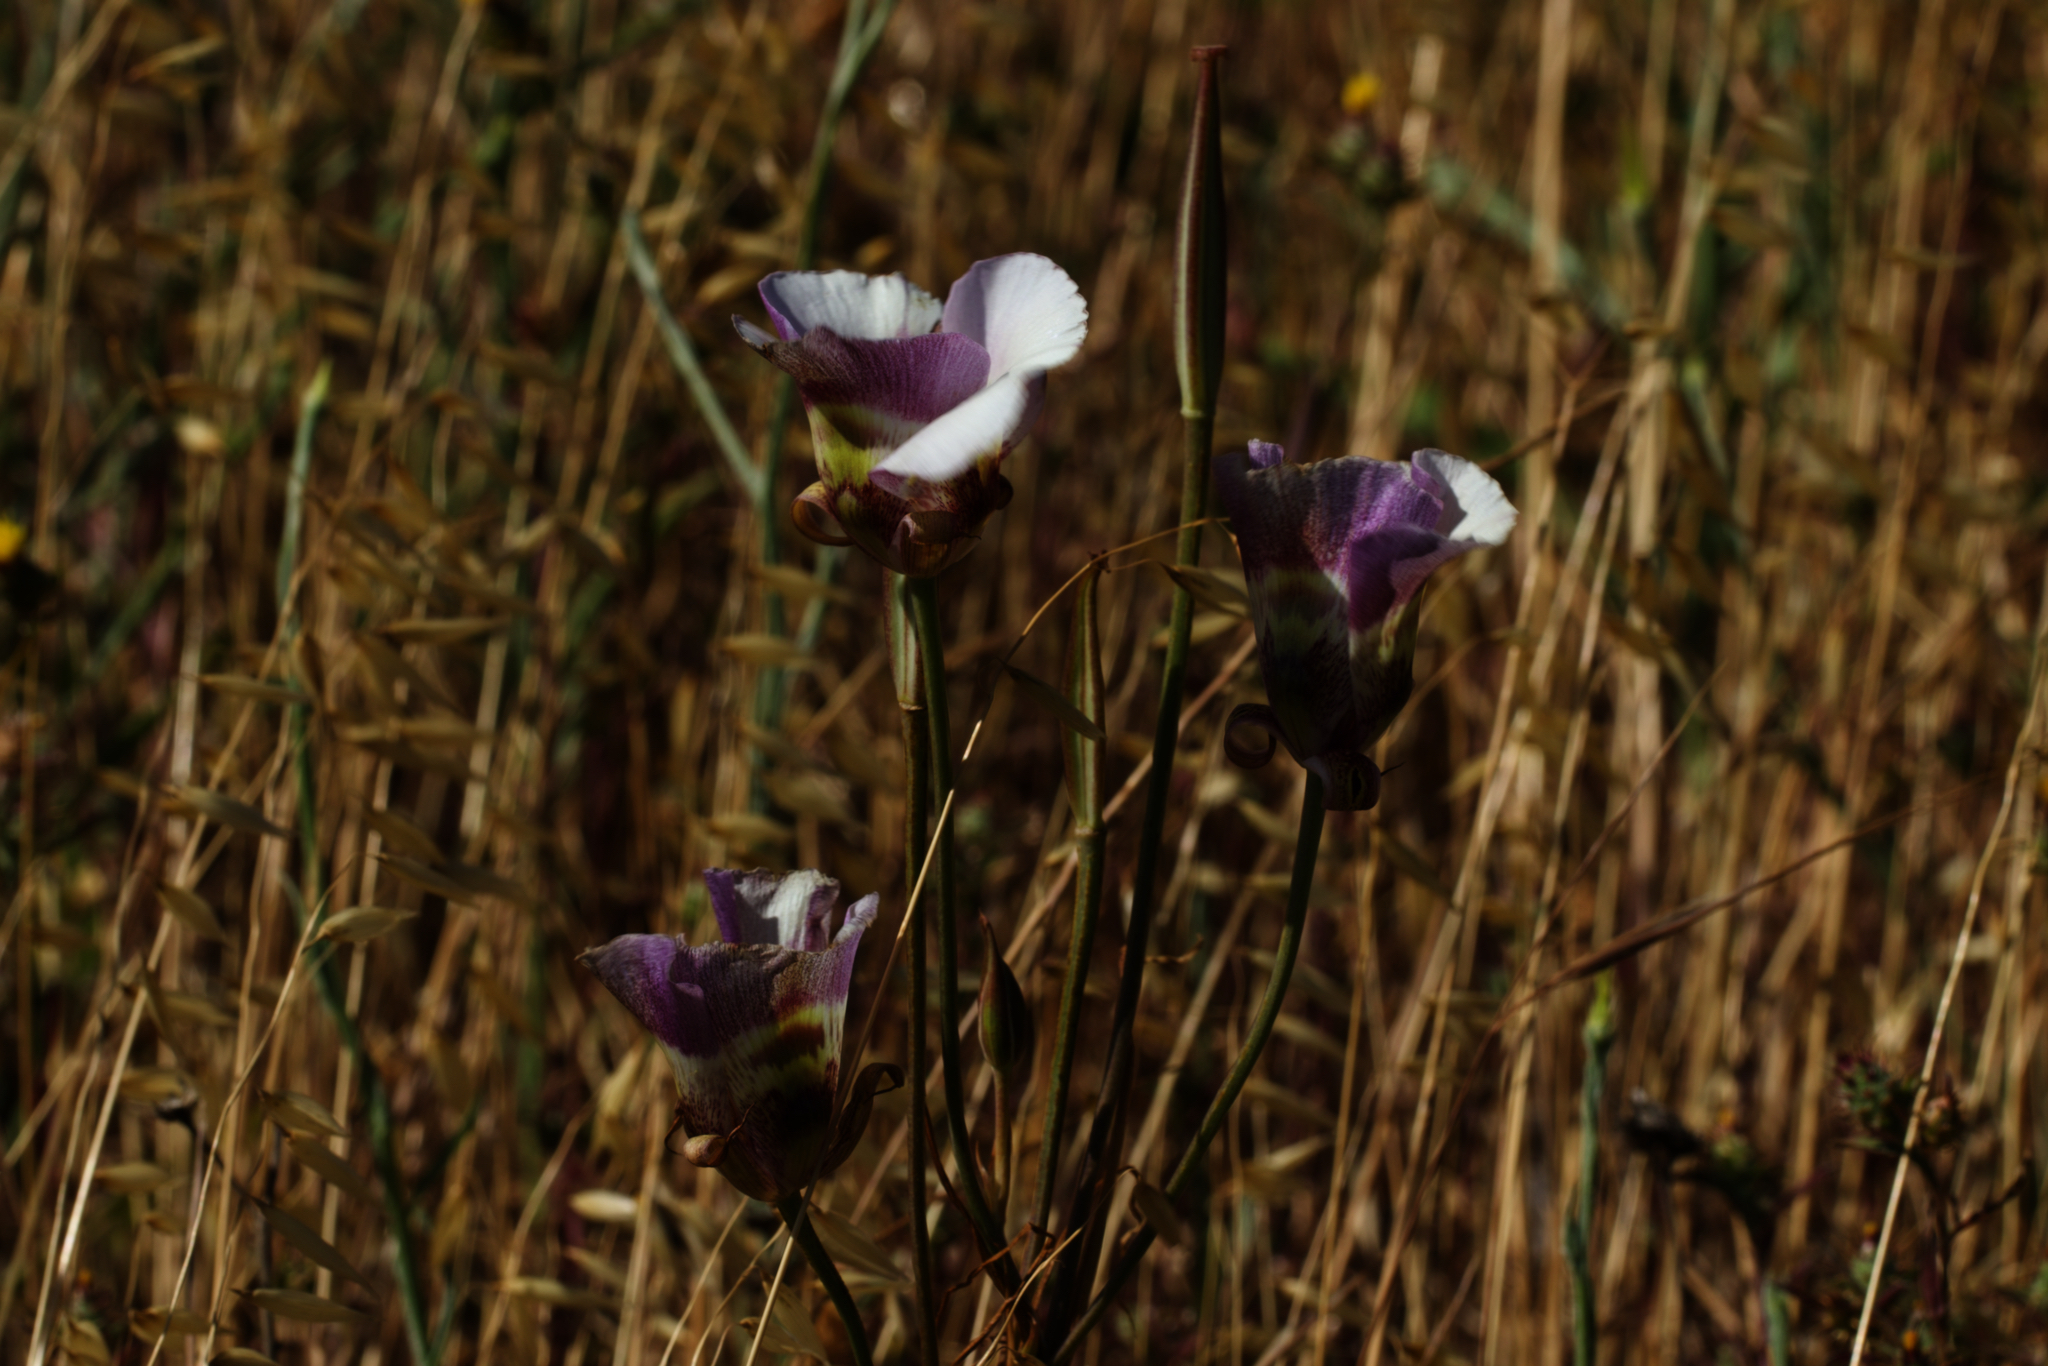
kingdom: Plantae
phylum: Tracheophyta
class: Liliopsida
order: Liliales
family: Liliaceae
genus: Calochortus
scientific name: Calochortus argillosus
